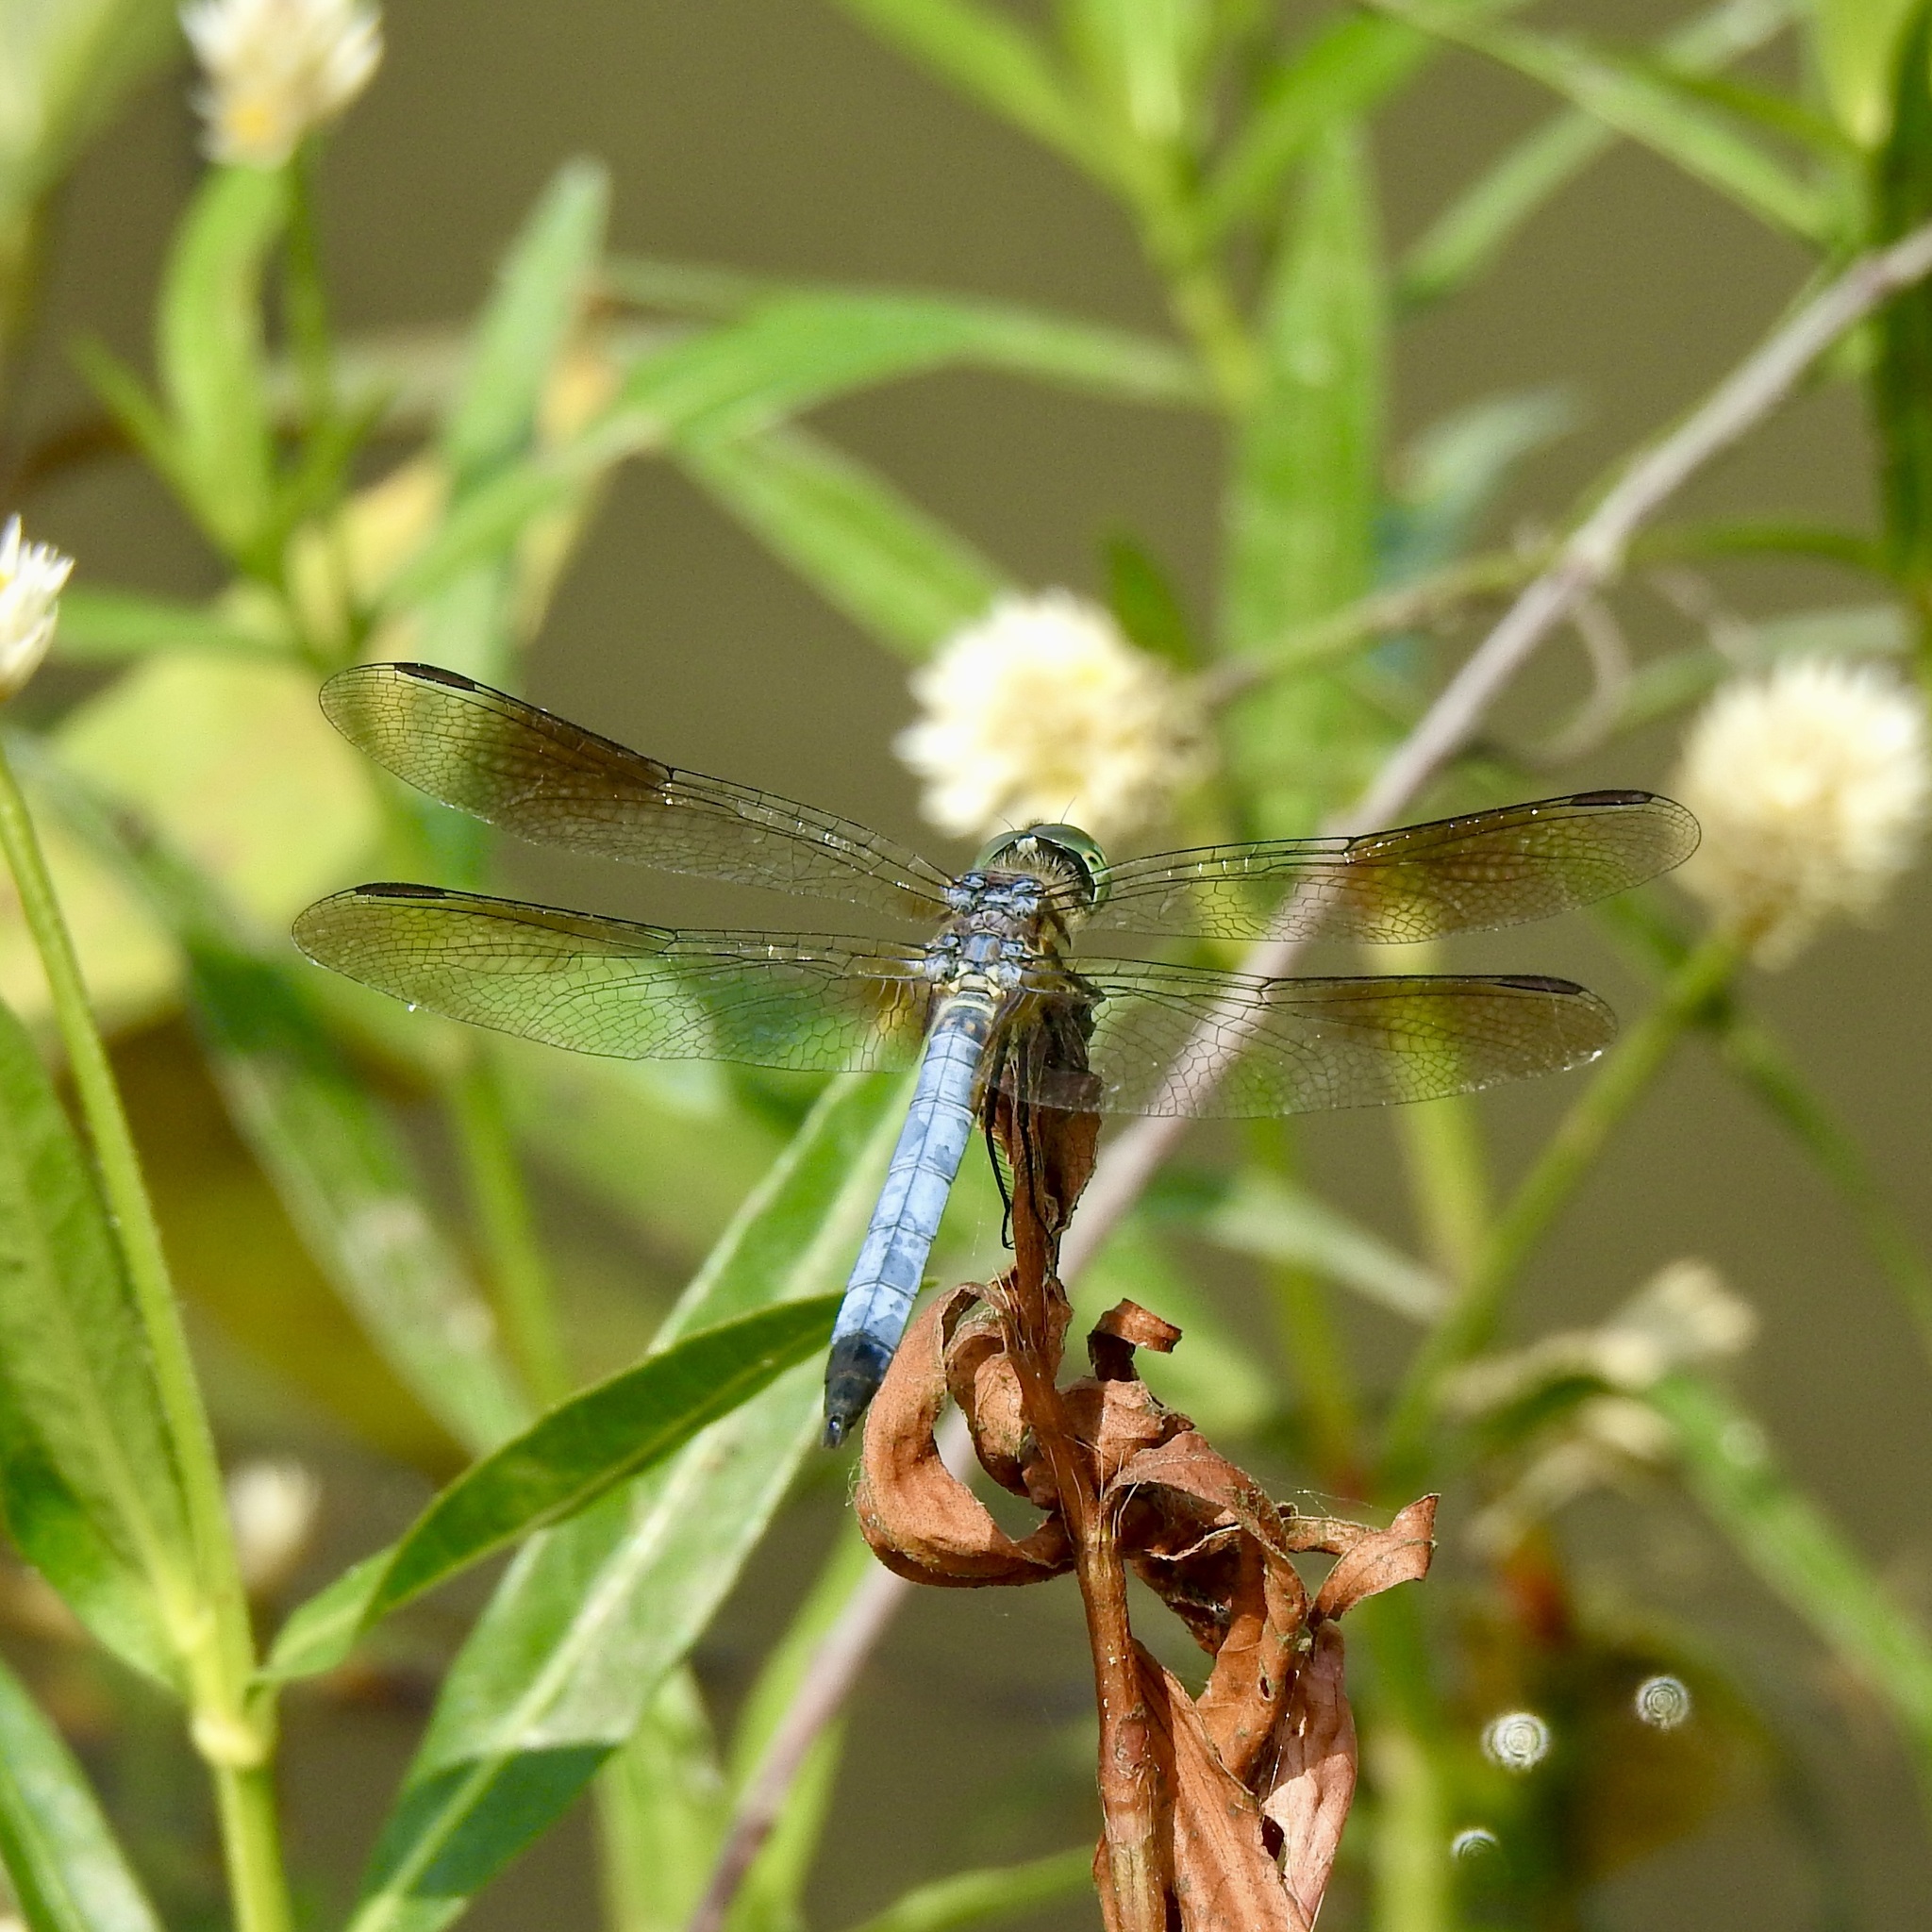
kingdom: Animalia
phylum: Arthropoda
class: Insecta
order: Odonata
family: Libellulidae
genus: Pachydiplax
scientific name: Pachydiplax longipennis
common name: Blue dasher
